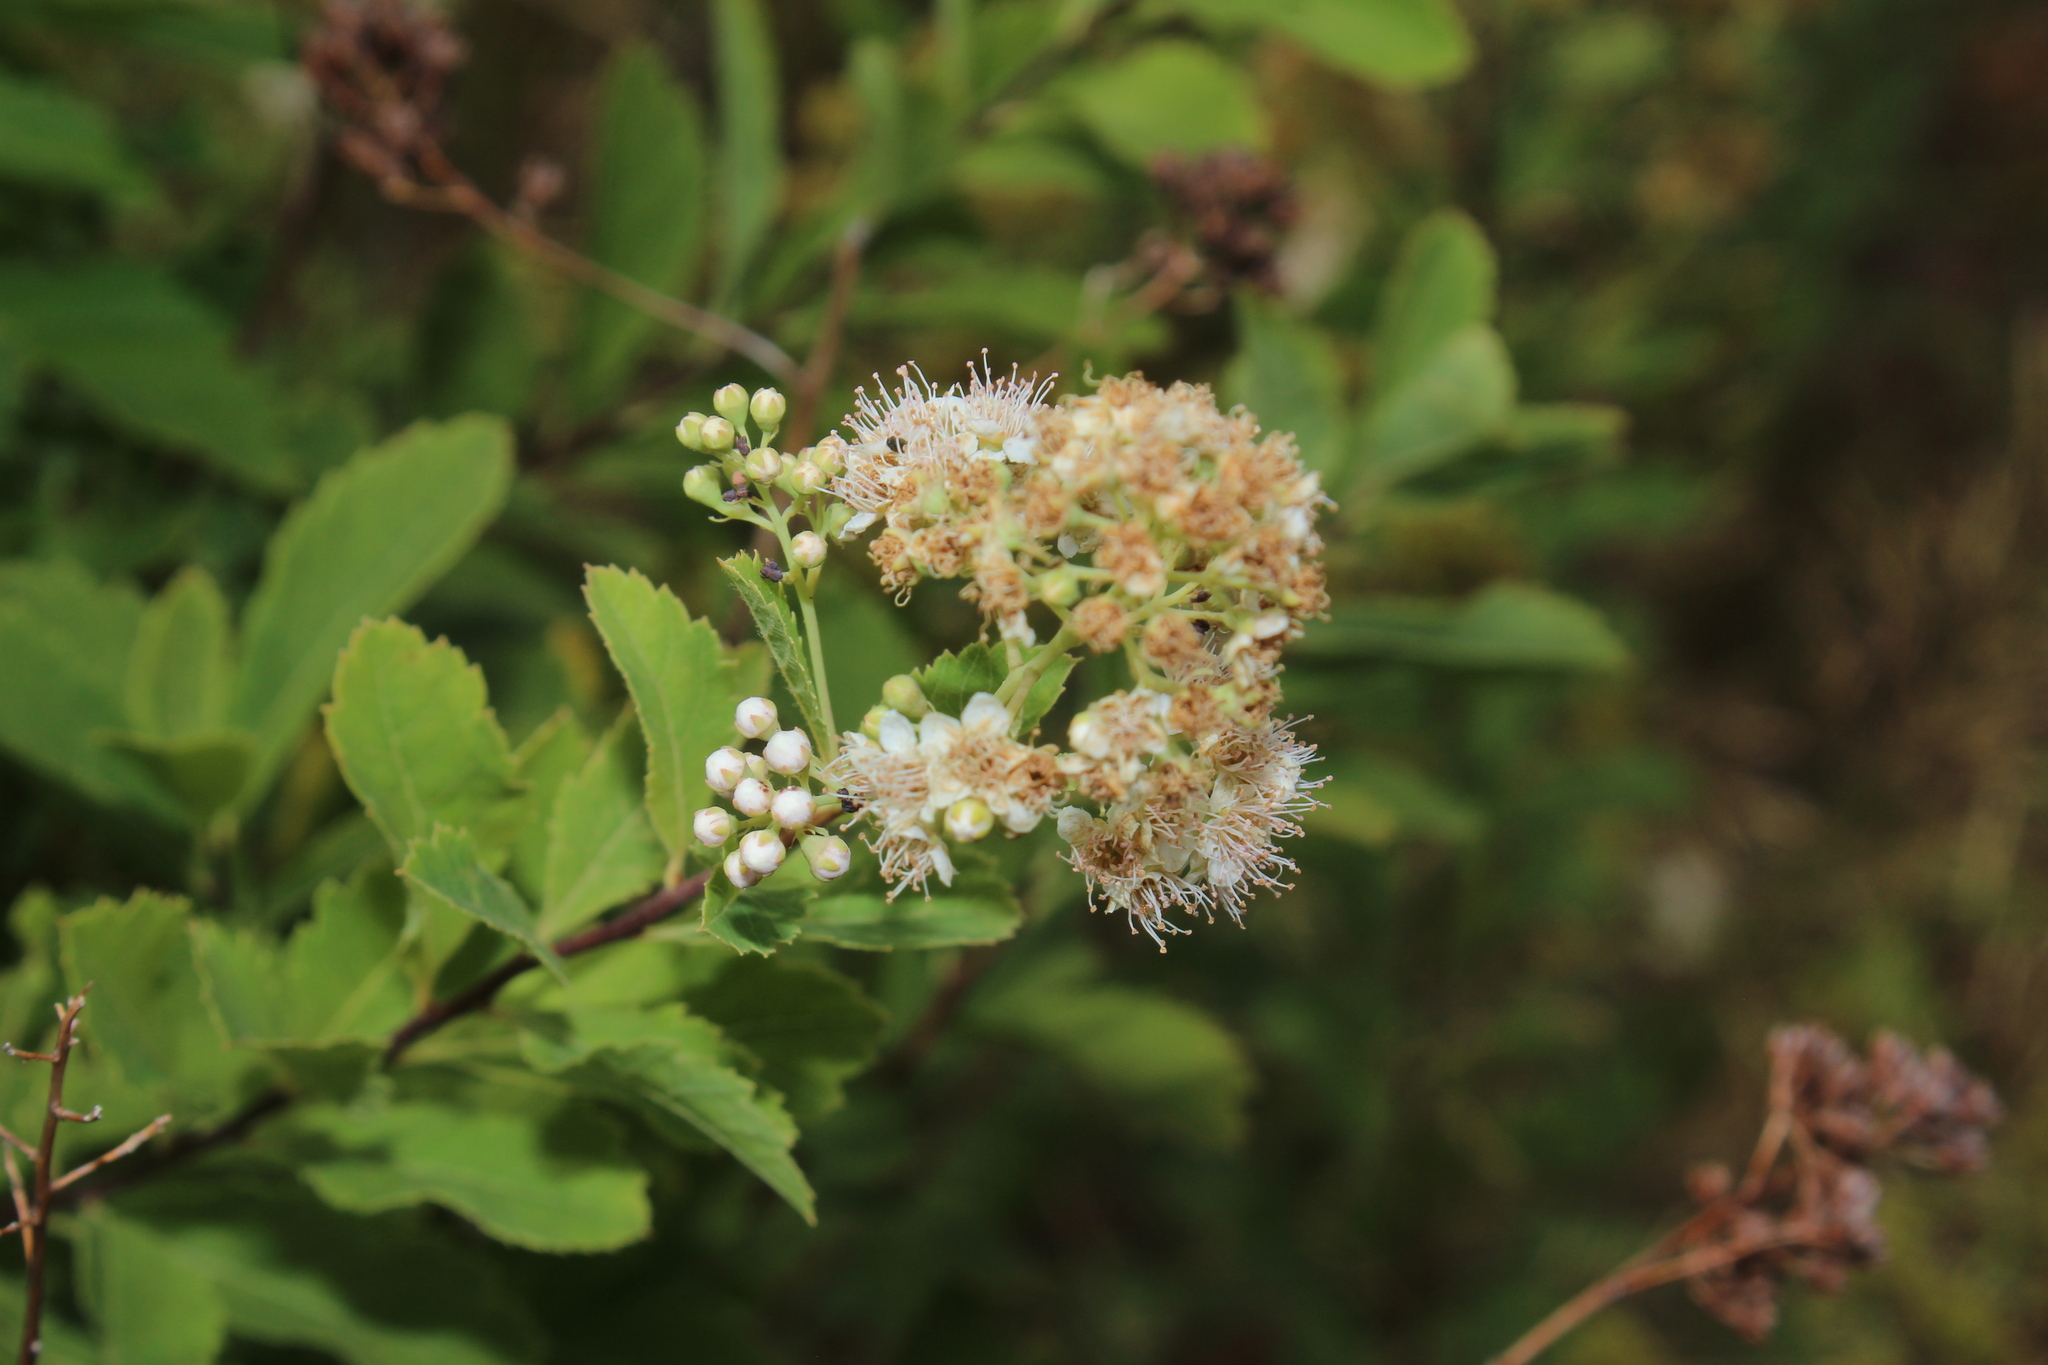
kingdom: Plantae
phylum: Tracheophyta
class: Magnoliopsida
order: Rosales
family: Rosaceae
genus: Spiraea
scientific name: Spiraea alba
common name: Pale bridewort
